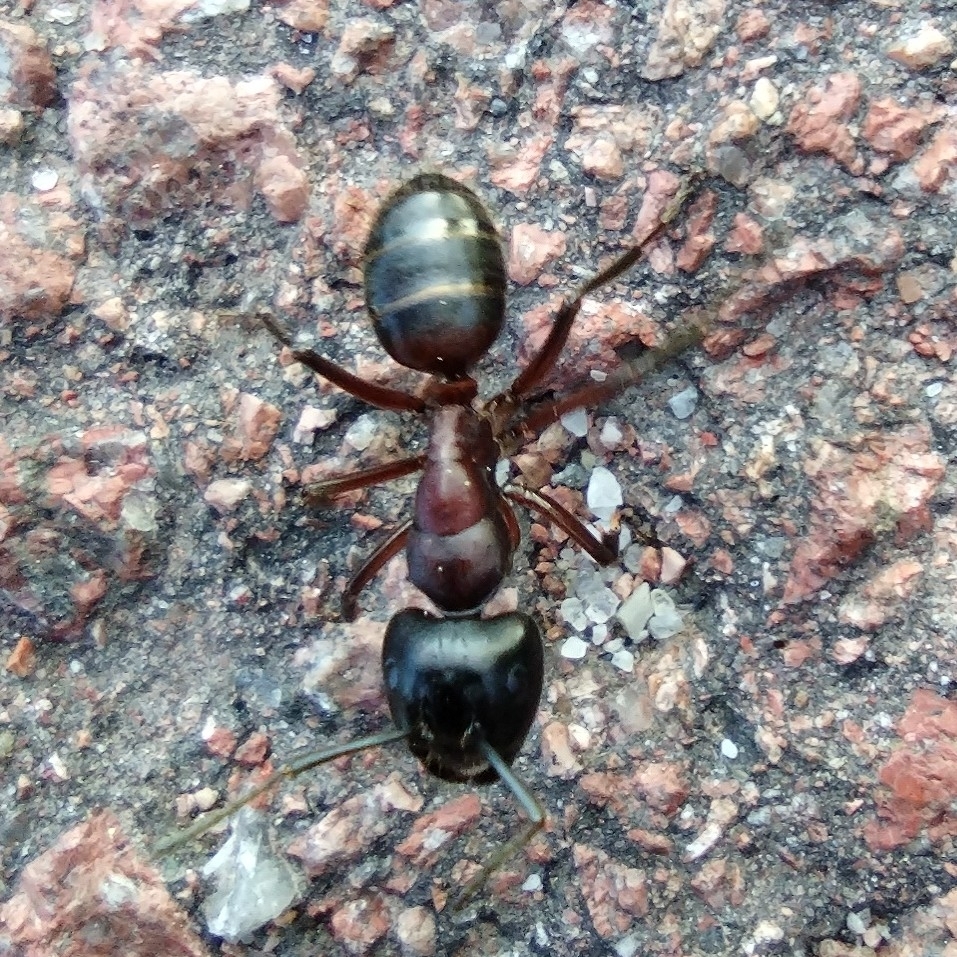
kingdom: Animalia
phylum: Arthropoda
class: Insecta
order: Hymenoptera
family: Formicidae
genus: Camponotus
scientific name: Camponotus ligniperdus
